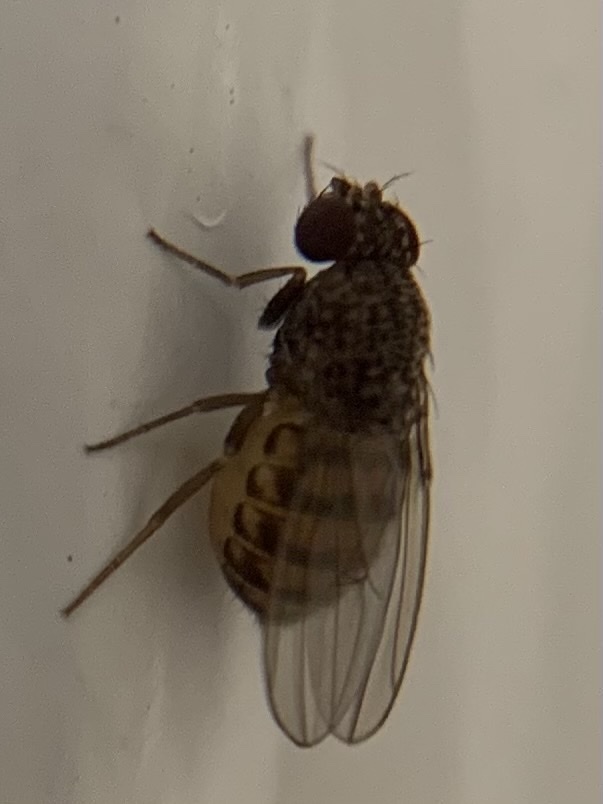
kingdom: Animalia
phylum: Arthropoda
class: Insecta
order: Diptera
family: Drosophilidae
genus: Drosophila
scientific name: Drosophila repleta
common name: Pomace fly
